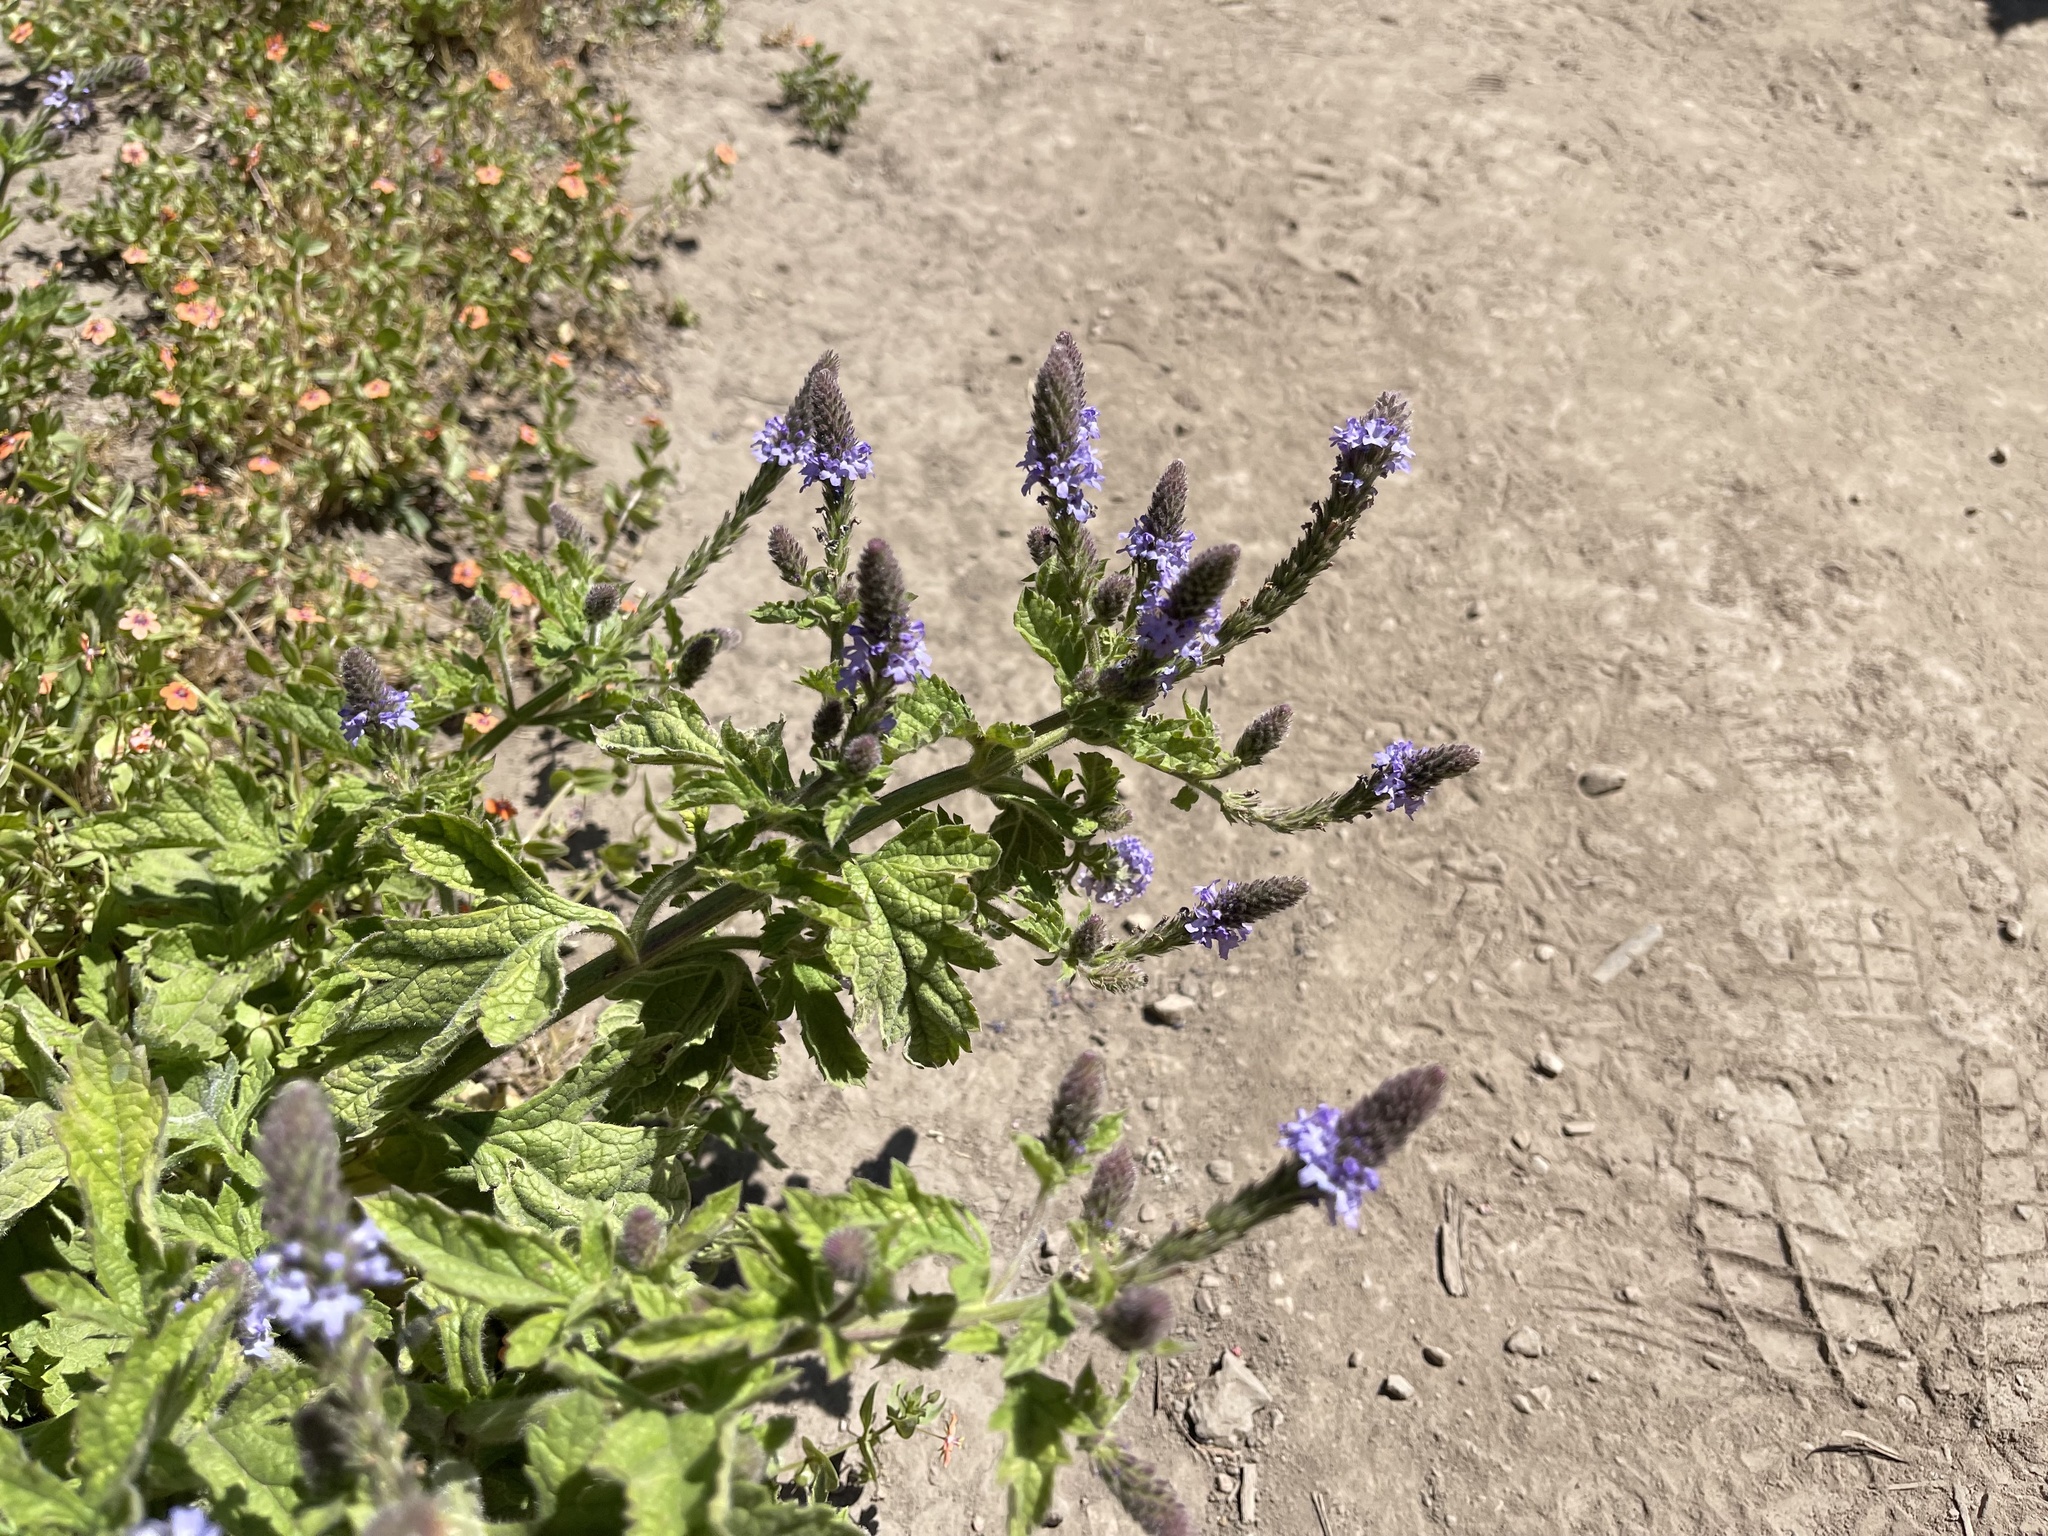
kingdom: Plantae
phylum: Tracheophyta
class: Magnoliopsida
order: Lamiales
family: Verbenaceae
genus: Verbena
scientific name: Verbena lasiostachys
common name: Vervain
